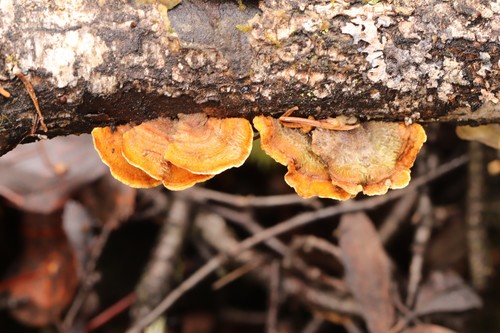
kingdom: Fungi
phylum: Basidiomycota
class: Agaricomycetes
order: Russulales
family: Stereaceae
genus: Stereum
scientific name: Stereum subtomentosum
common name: Yellowing curtain crust
